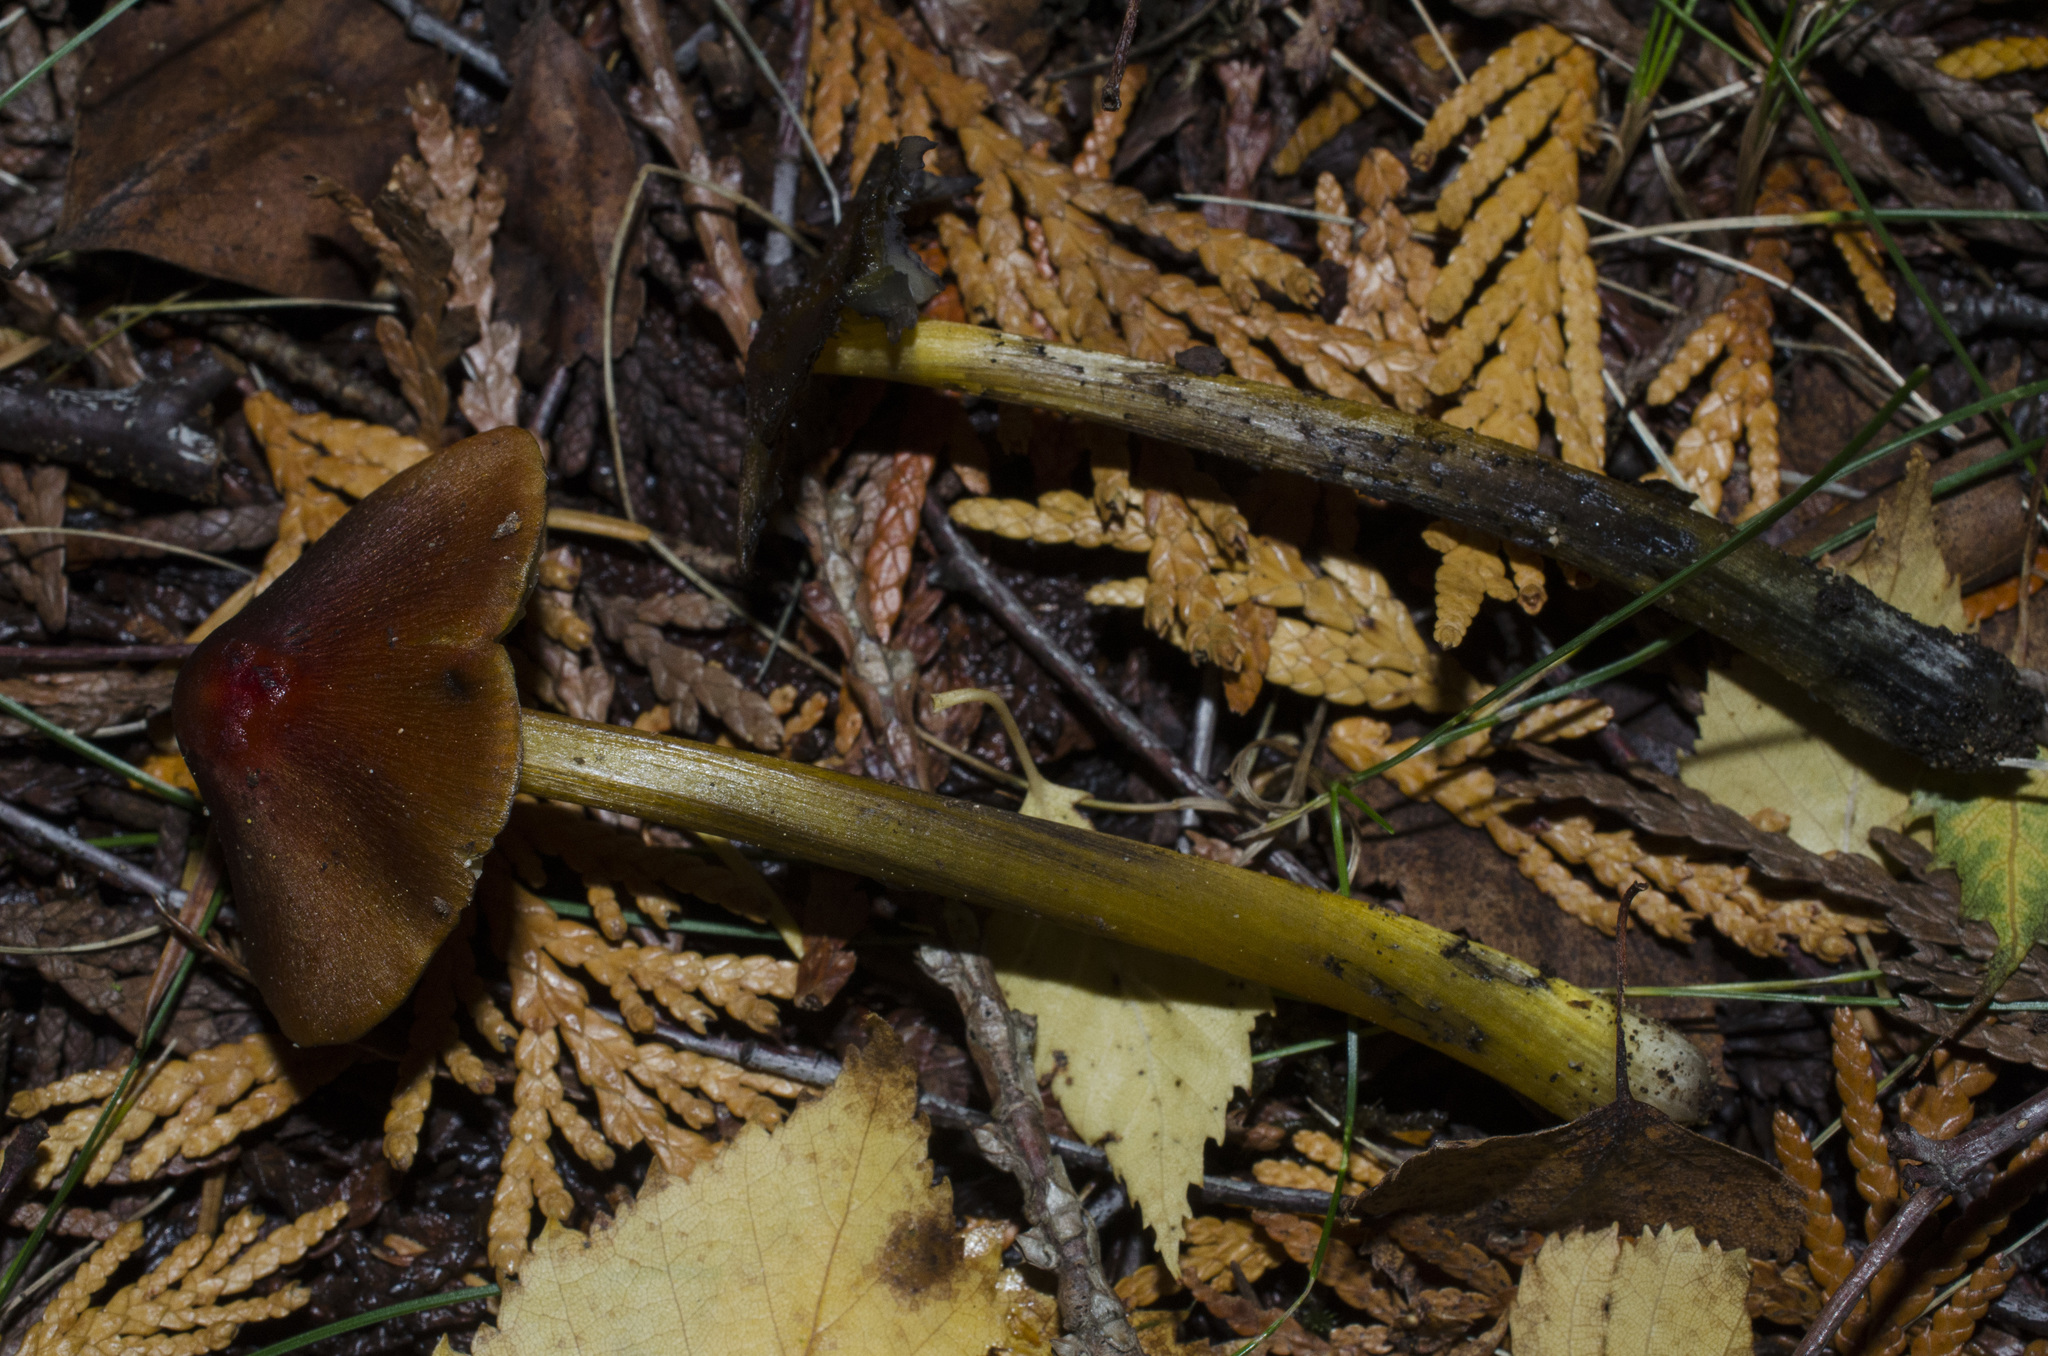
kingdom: Fungi
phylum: Basidiomycota
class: Agaricomycetes
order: Agaricales
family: Hygrophoraceae
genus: Hygrocybe
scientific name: Hygrocybe singeri
